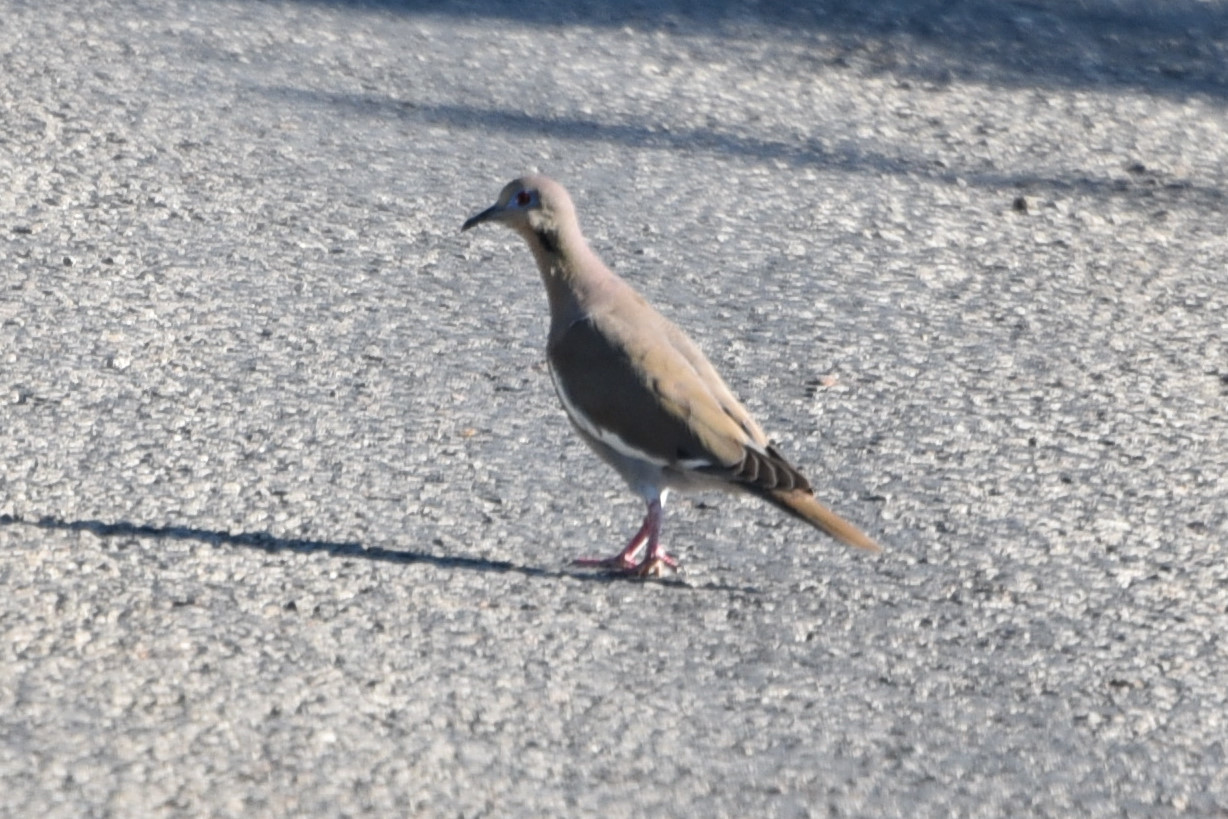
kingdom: Animalia
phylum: Chordata
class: Aves
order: Columbiformes
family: Columbidae
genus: Zenaida
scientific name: Zenaida asiatica
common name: White-winged dove
